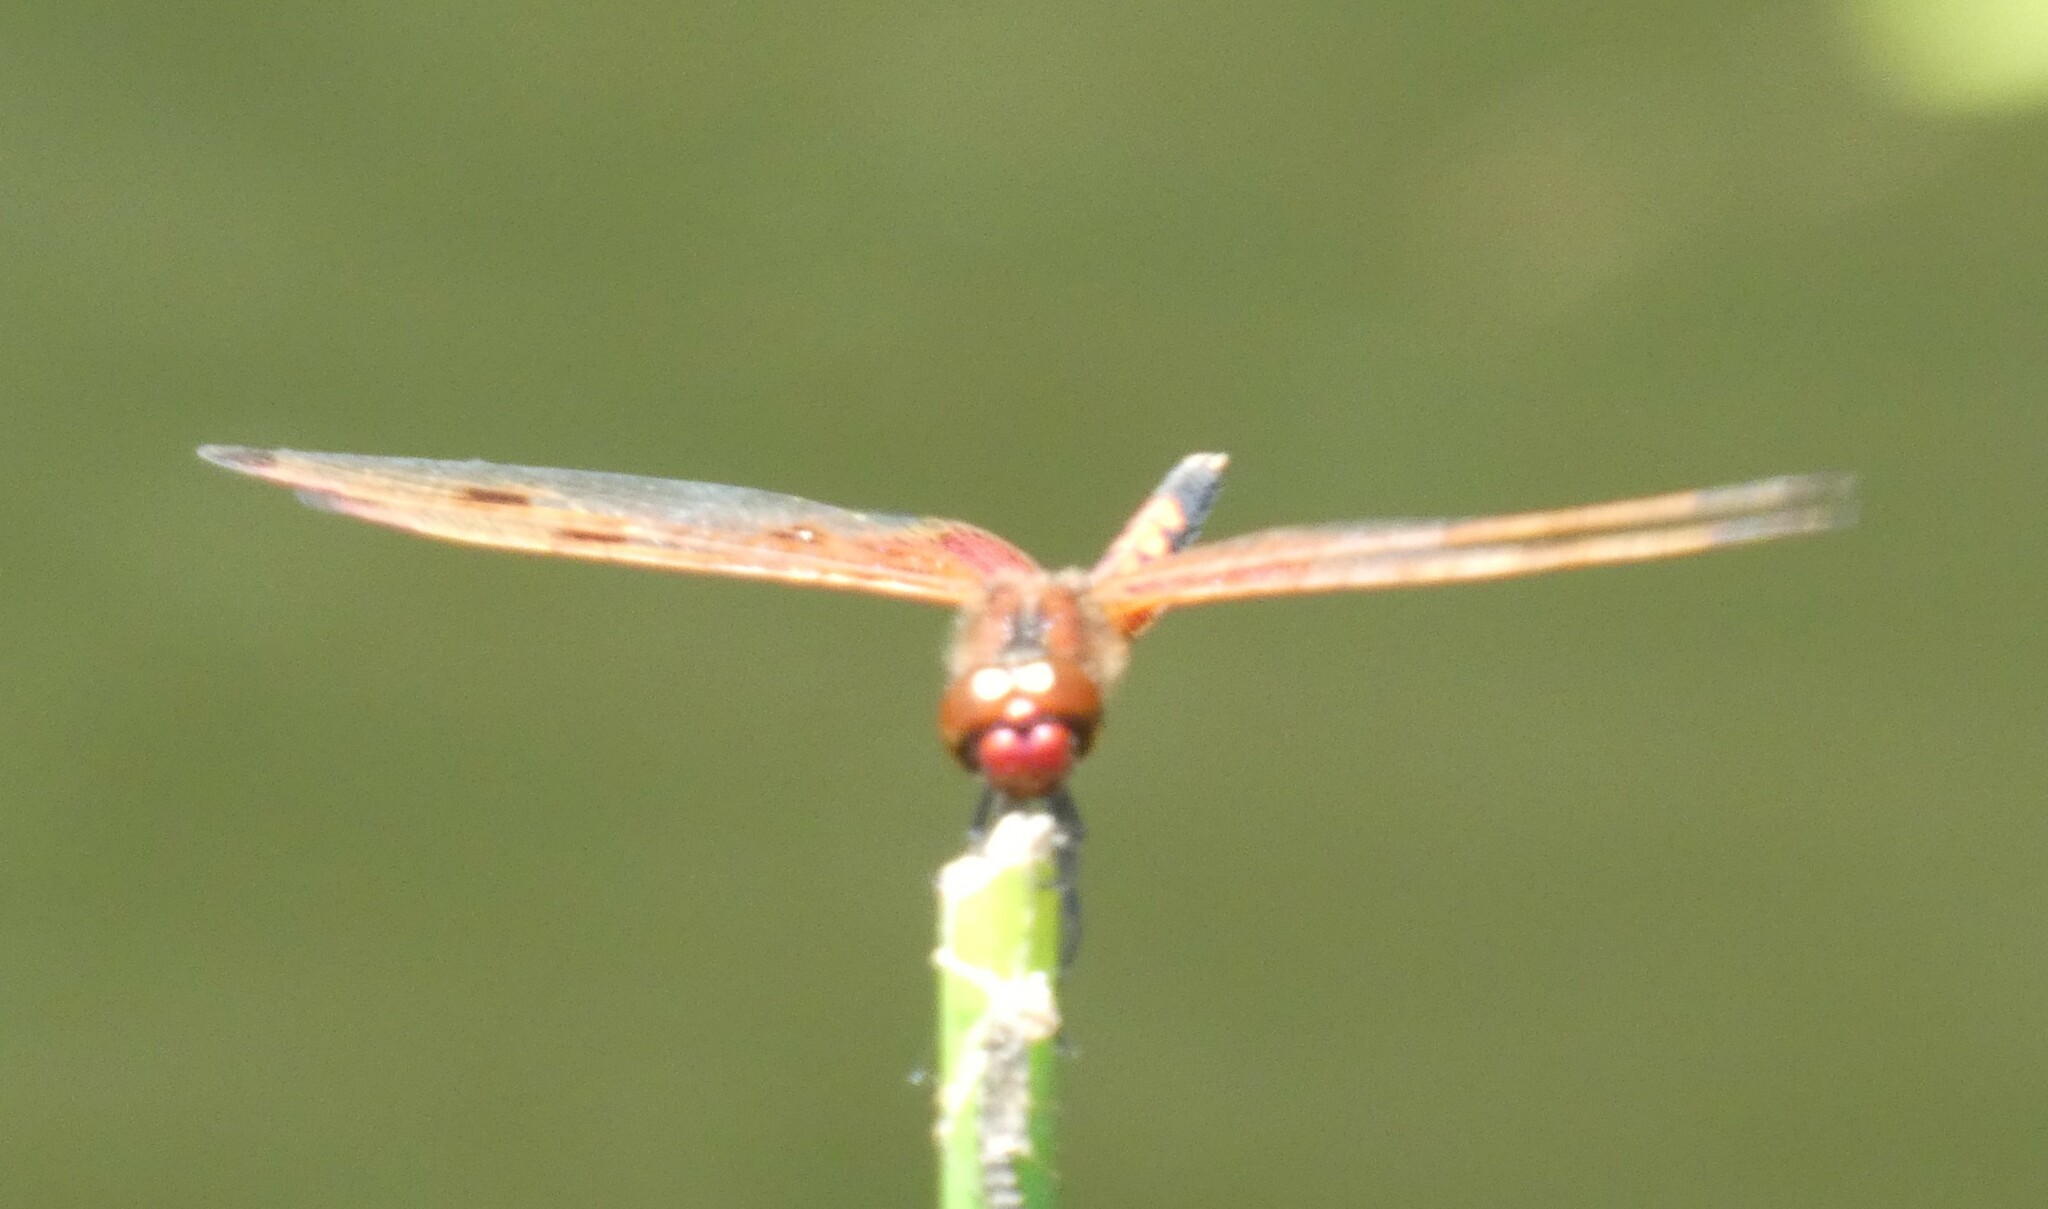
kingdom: Animalia
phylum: Arthropoda
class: Insecta
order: Odonata
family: Libellulidae
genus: Celithemis
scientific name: Celithemis elisa
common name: Calico pennant
